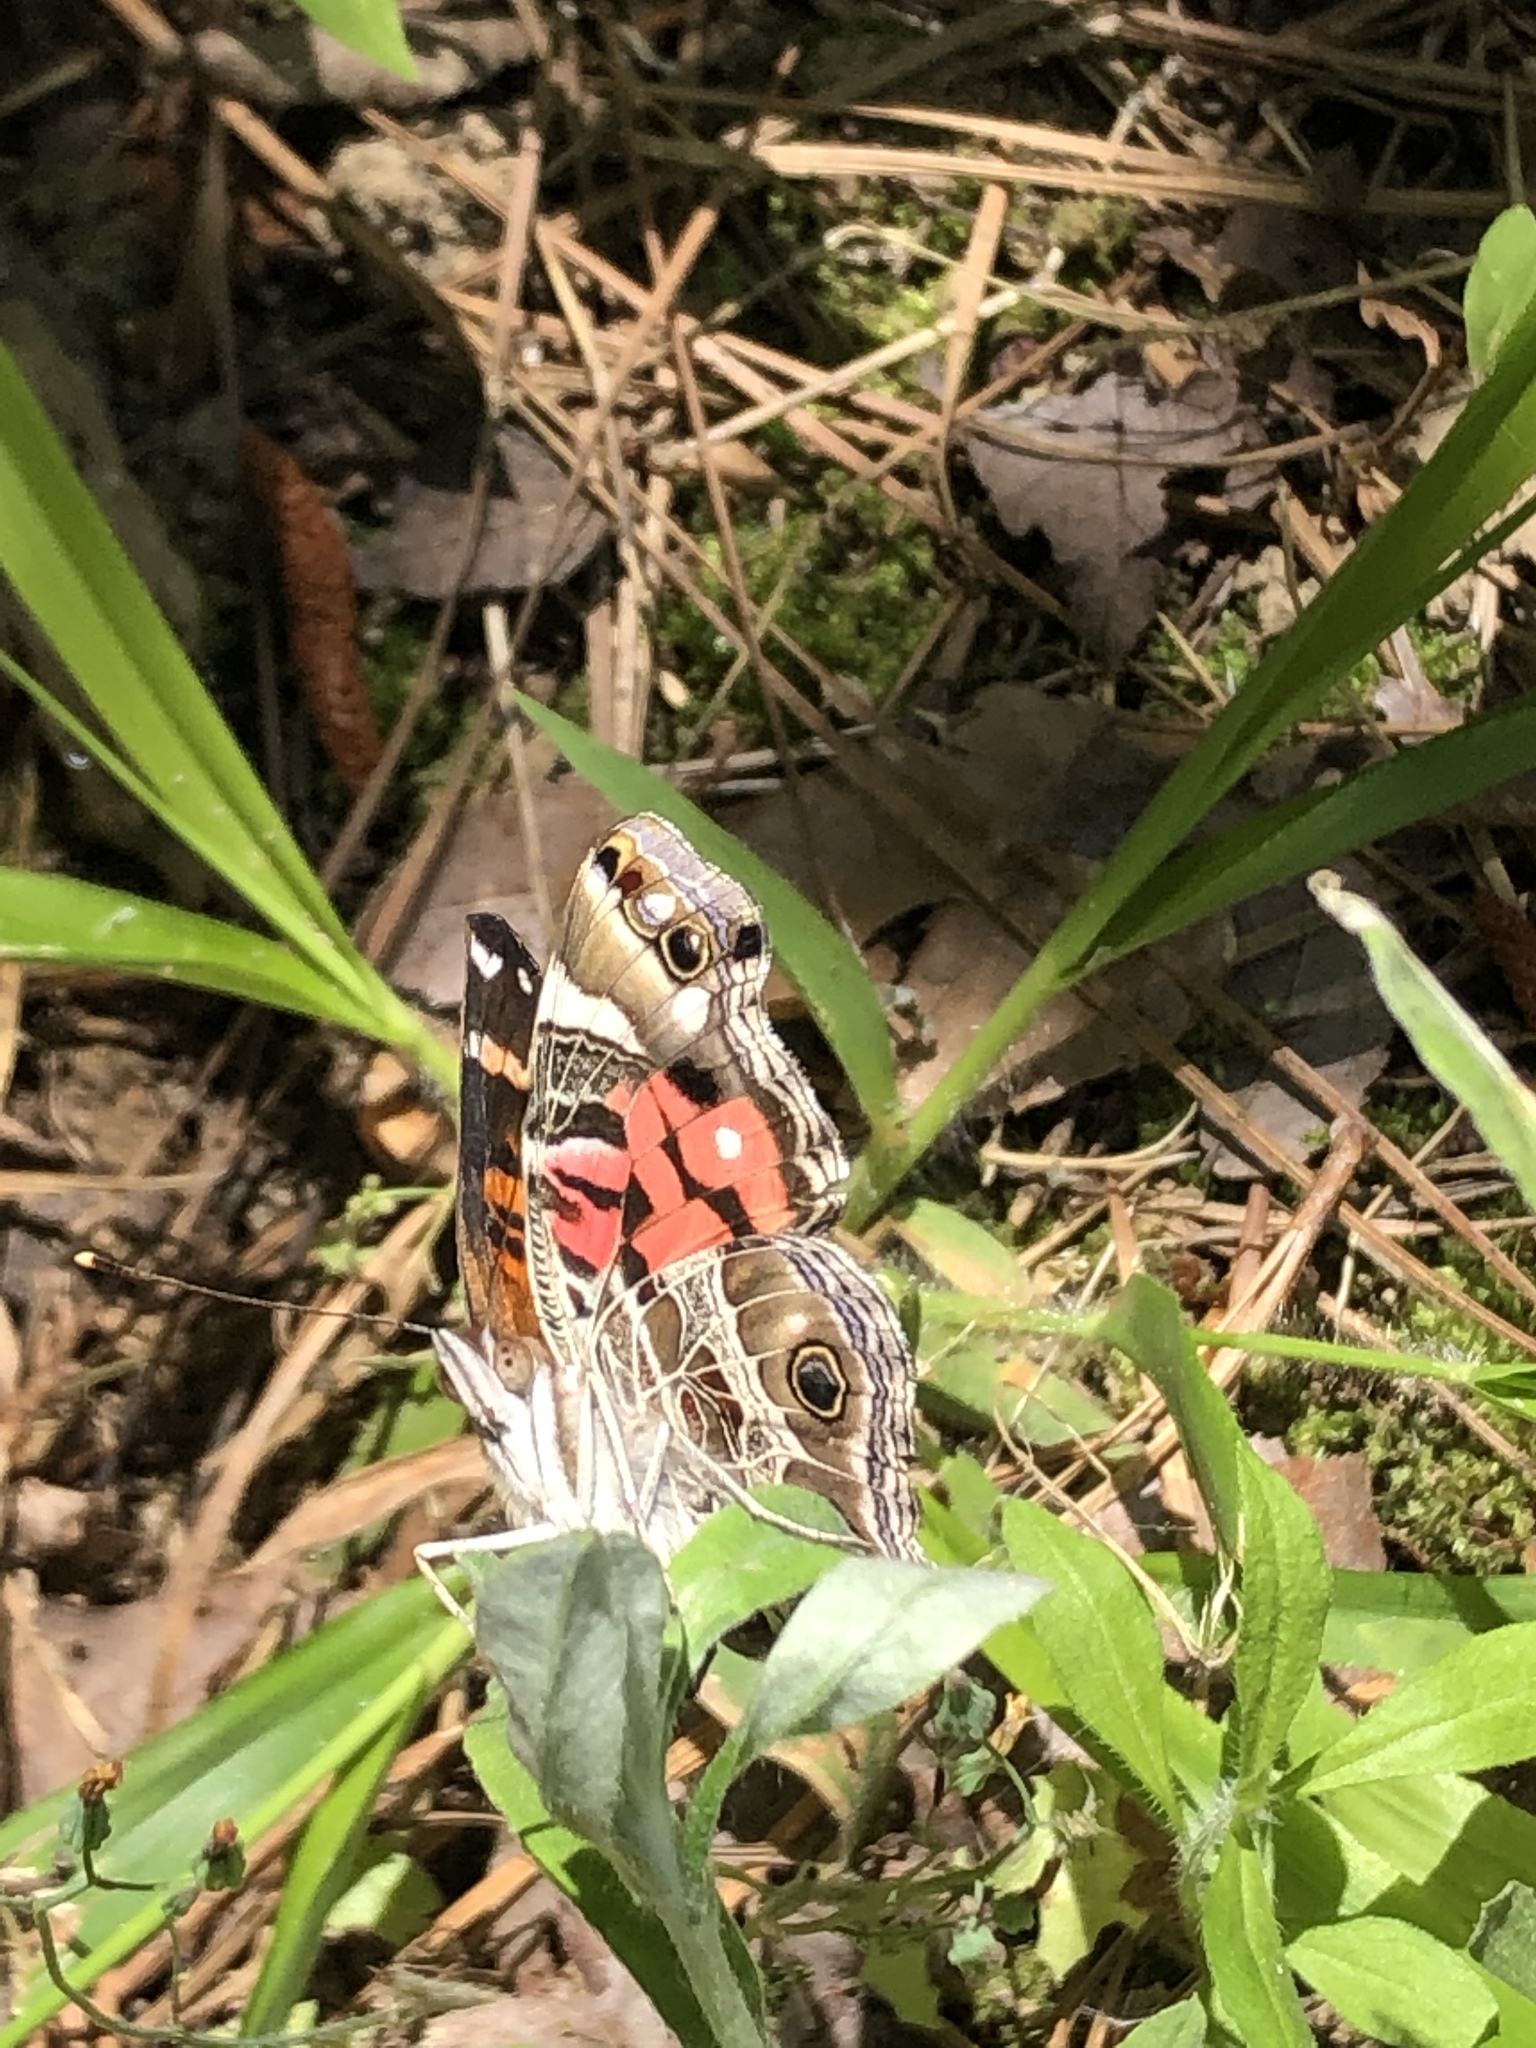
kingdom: Animalia
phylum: Arthropoda
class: Insecta
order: Lepidoptera
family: Nymphalidae
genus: Vanessa
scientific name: Vanessa virginiensis
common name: American lady
